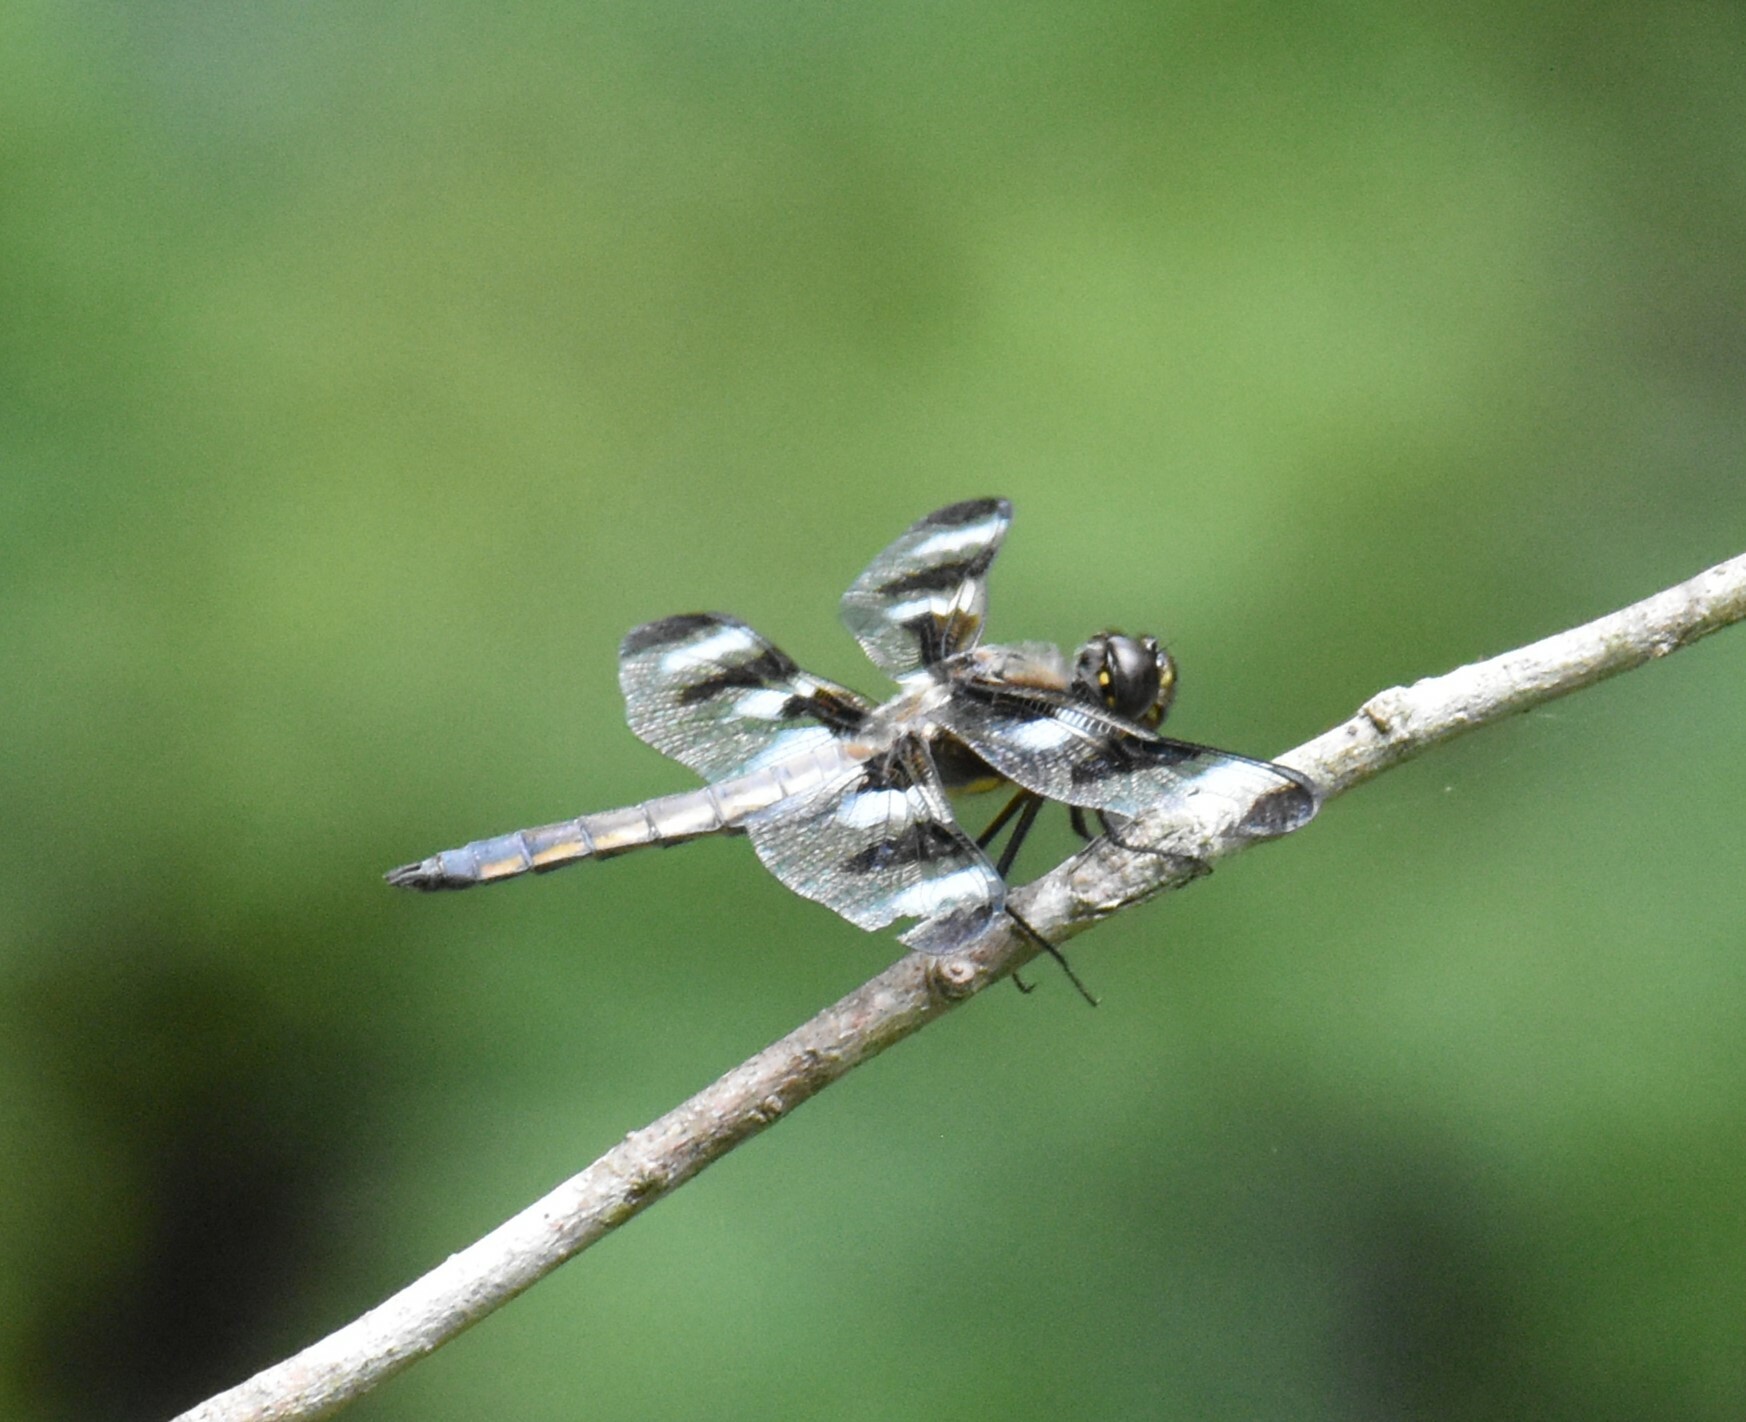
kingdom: Animalia
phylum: Arthropoda
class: Insecta
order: Odonata
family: Libellulidae
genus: Libellula
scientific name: Libellula pulchella
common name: Twelve-spotted skimmer
